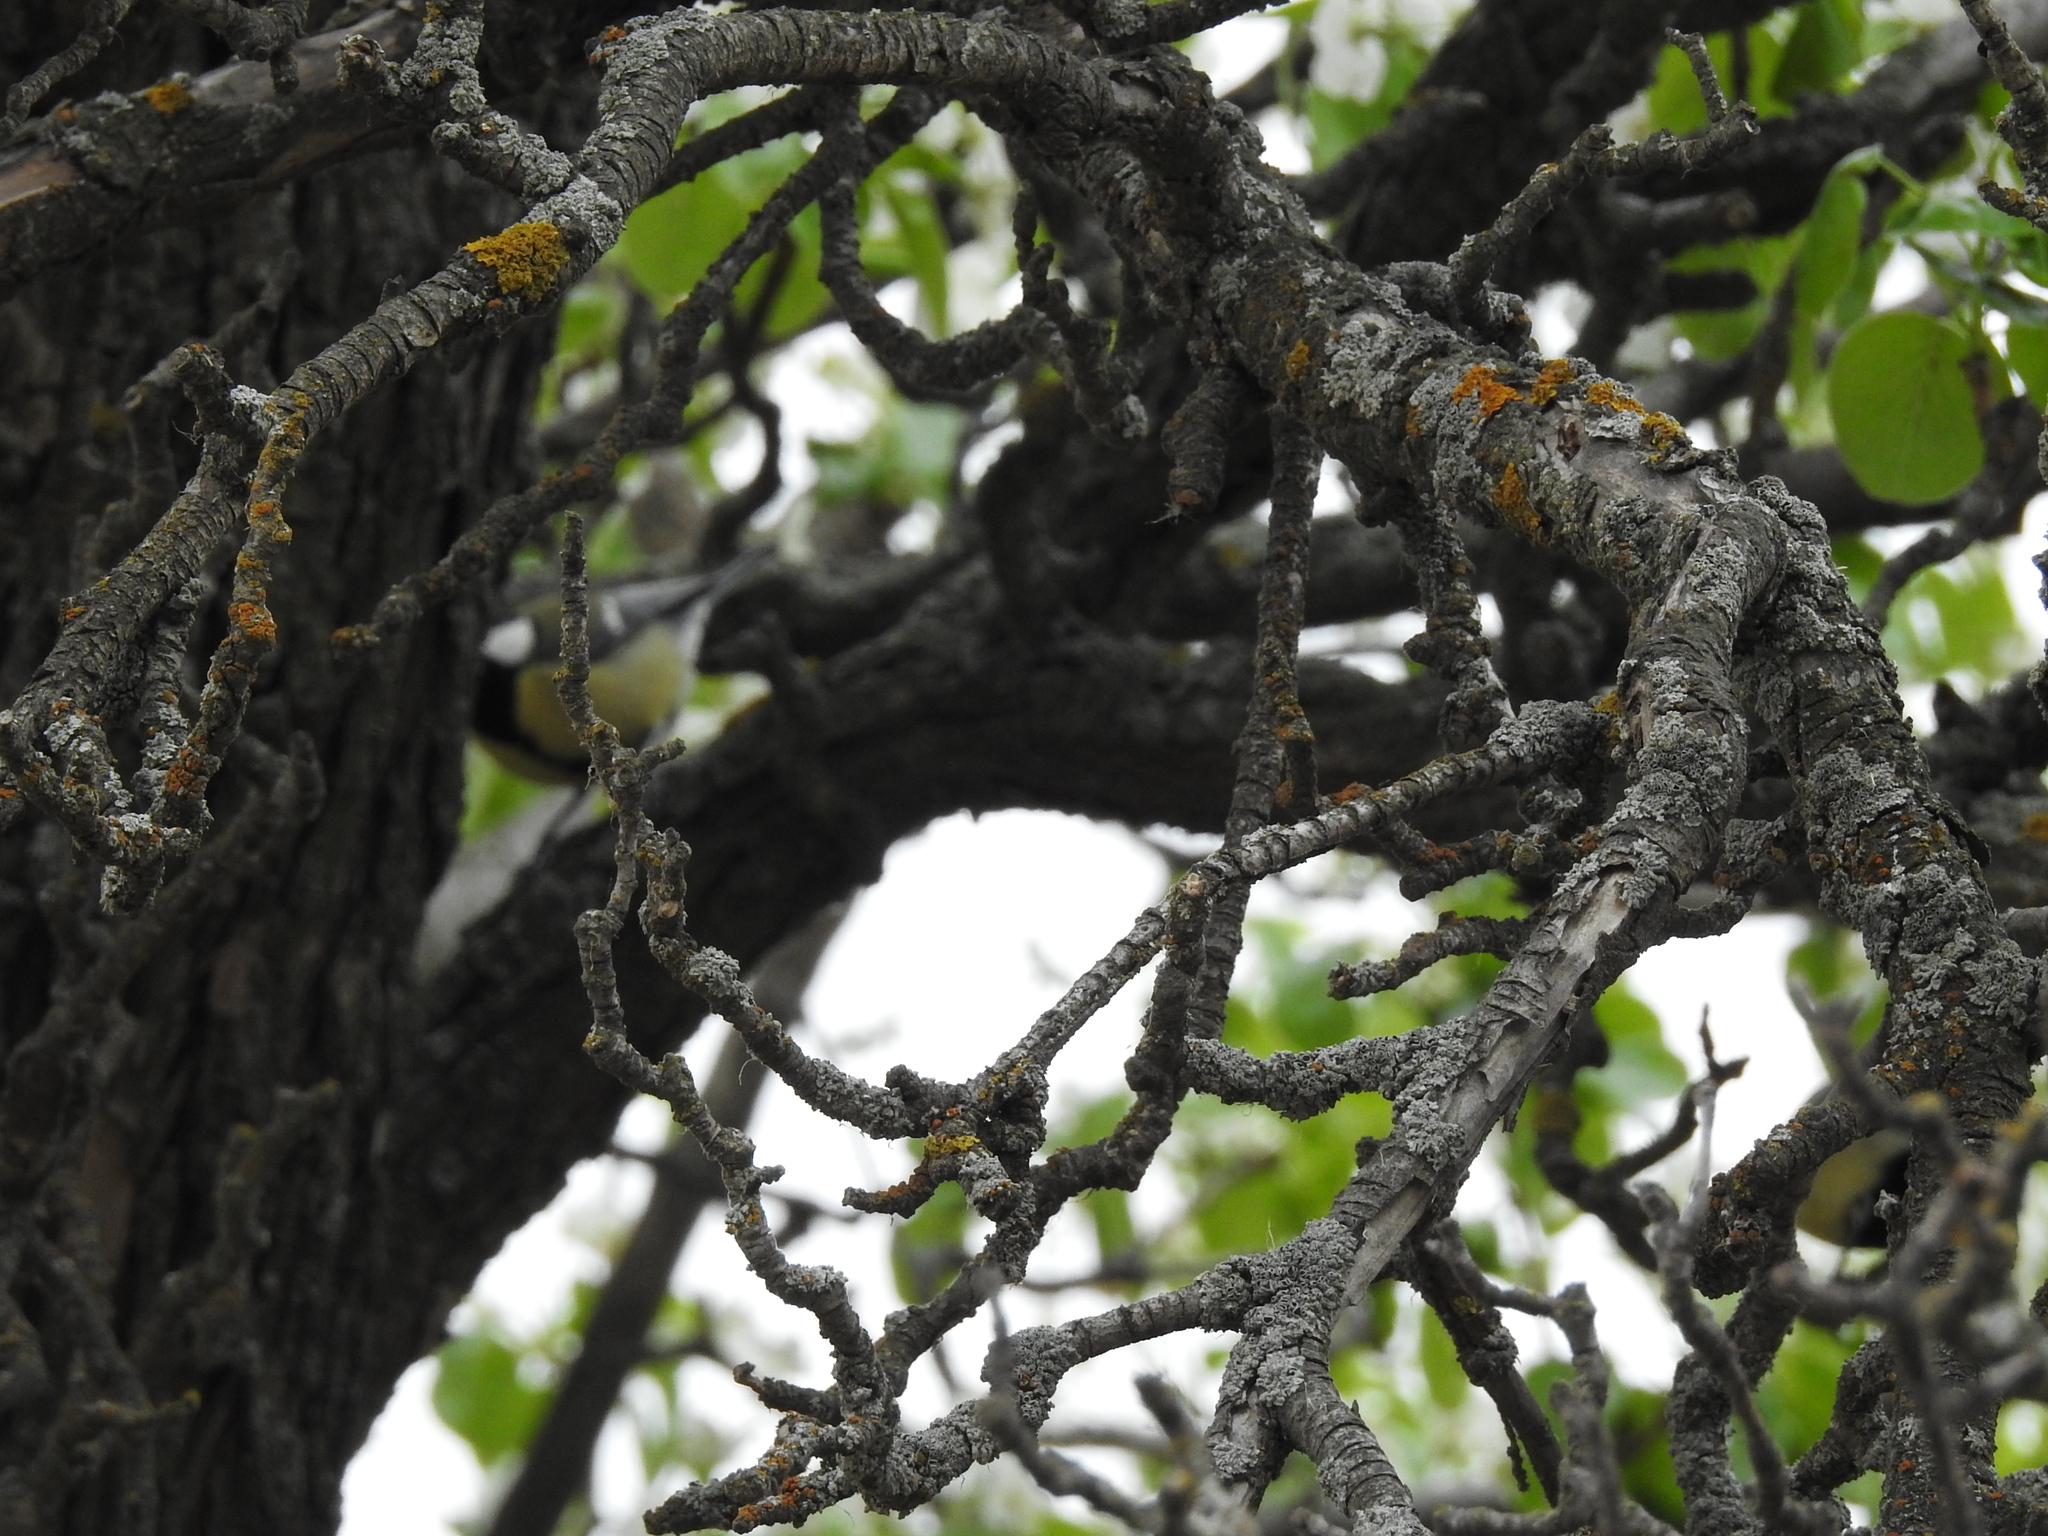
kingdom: Animalia
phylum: Chordata
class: Aves
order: Passeriformes
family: Paridae
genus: Parus
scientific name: Parus major
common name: Great tit
